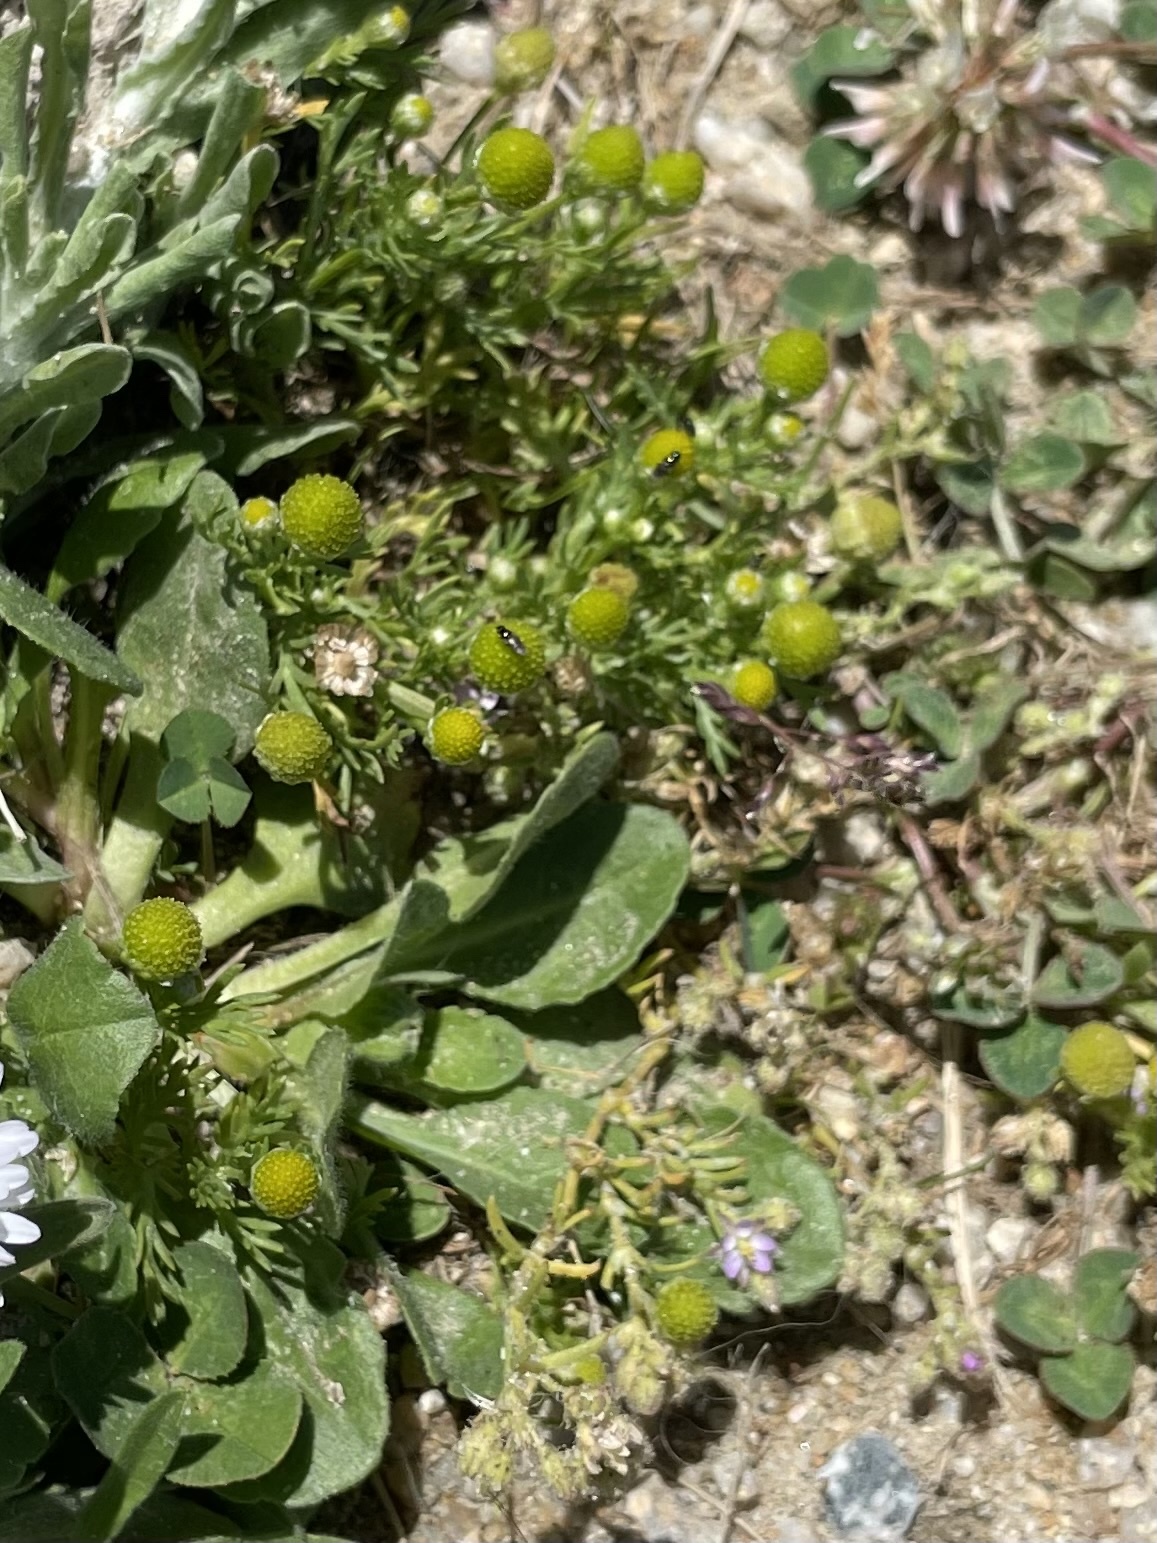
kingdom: Plantae
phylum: Tracheophyta
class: Magnoliopsida
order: Asterales
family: Asteraceae
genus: Matricaria
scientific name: Matricaria discoidea
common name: Disc mayweed
